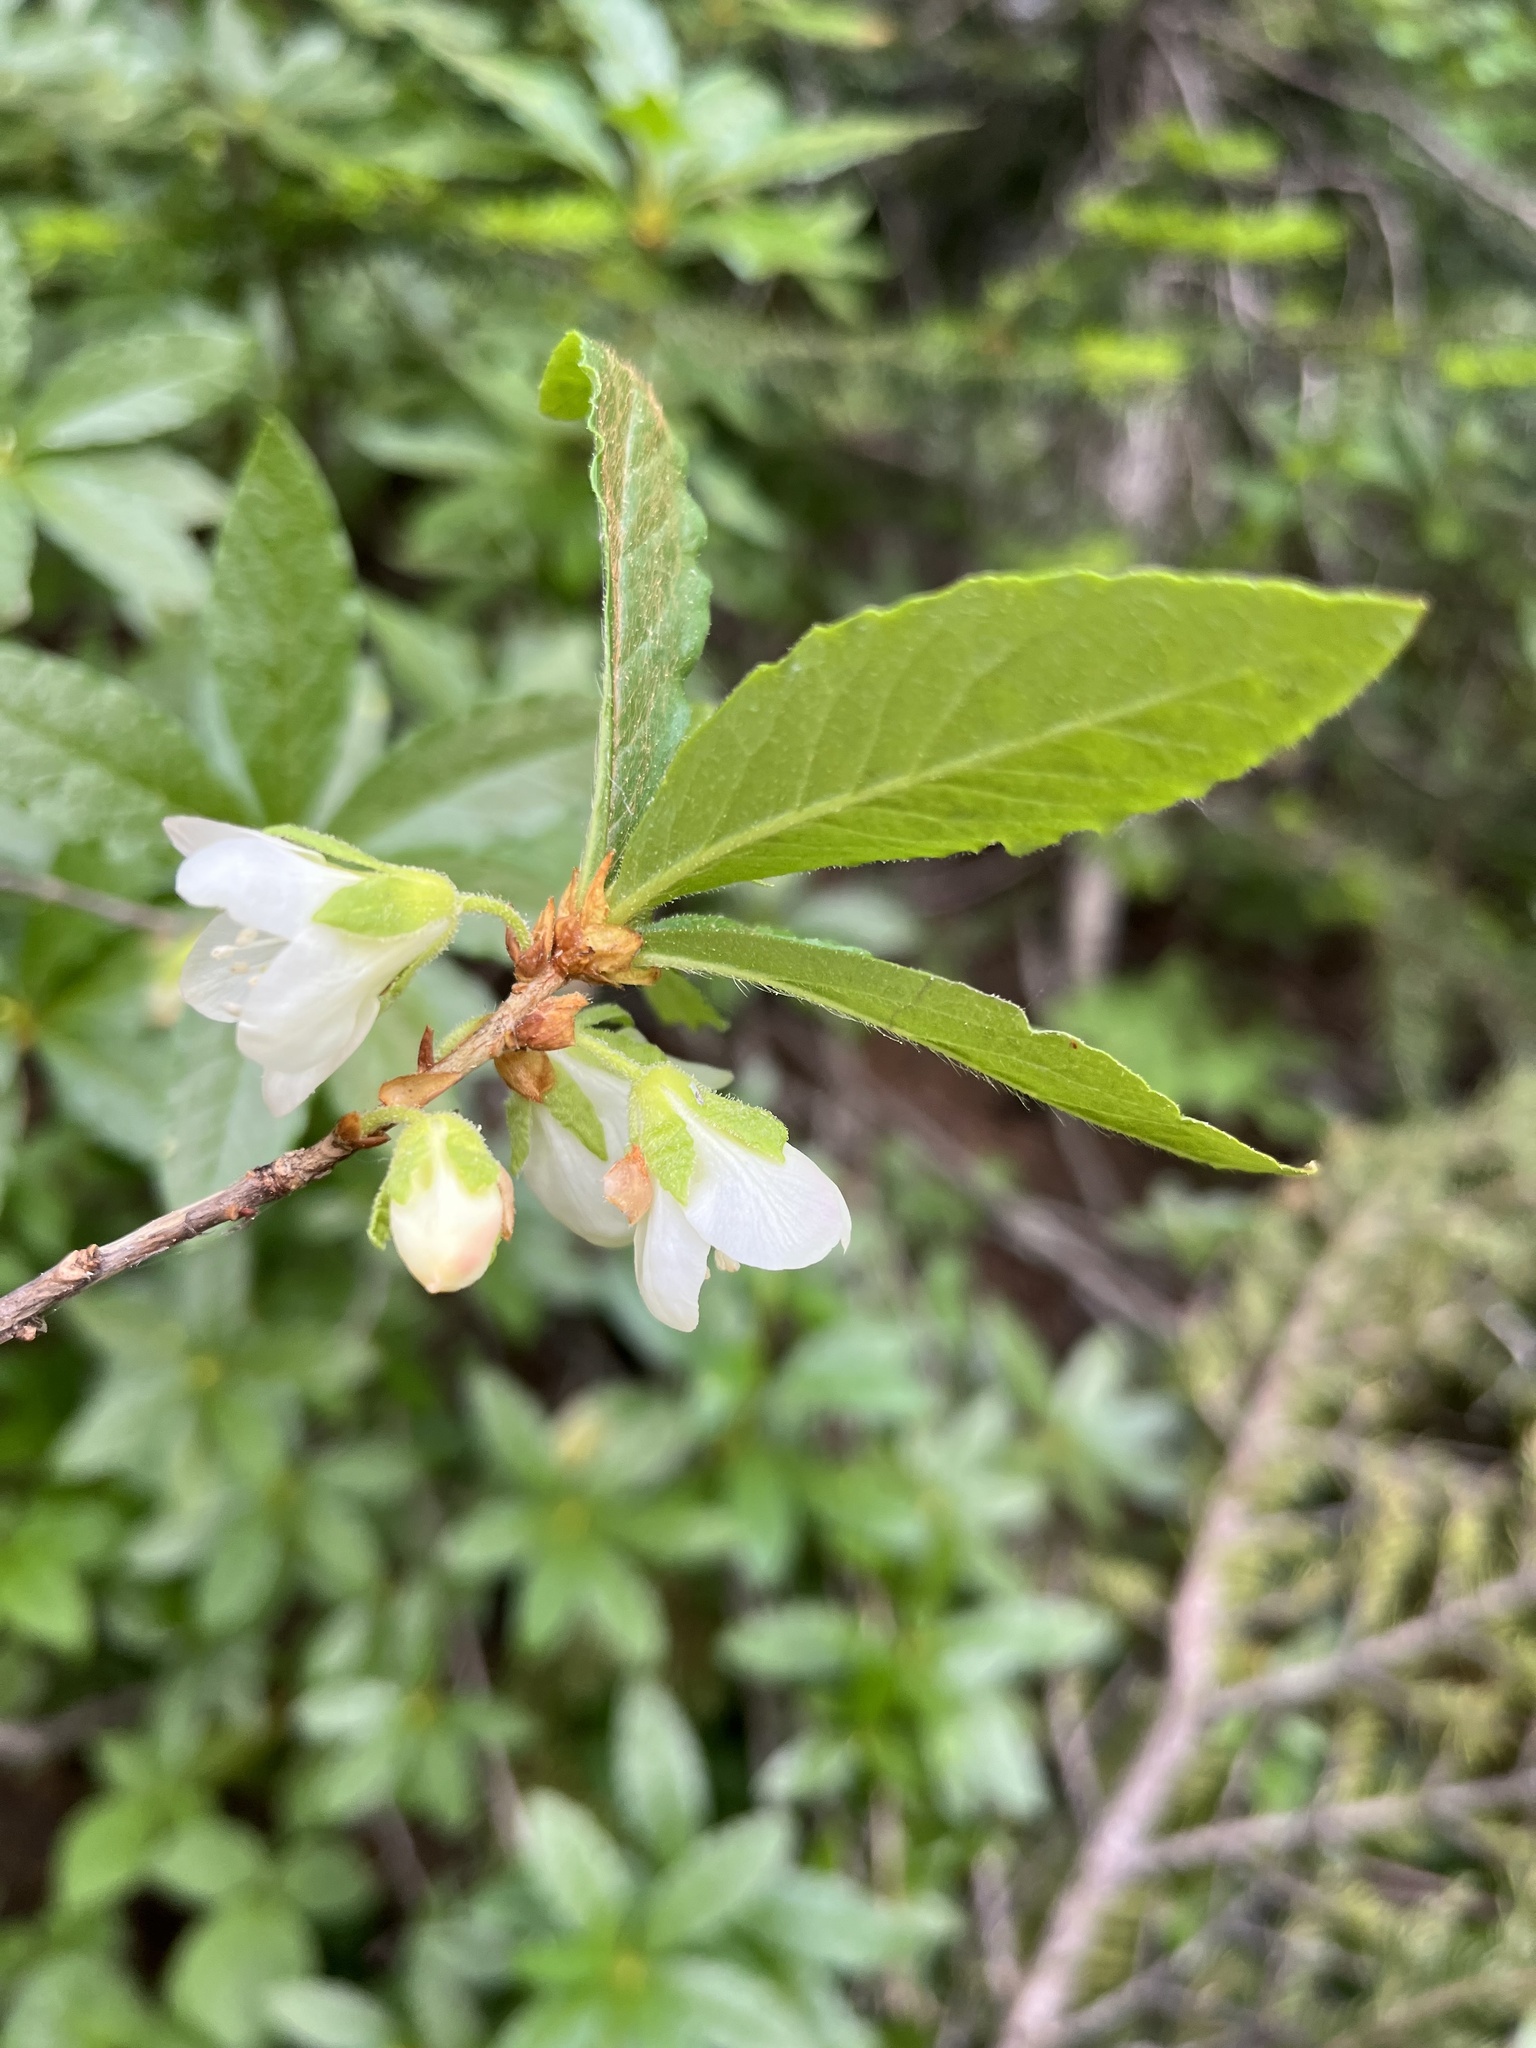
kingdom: Plantae
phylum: Tracheophyta
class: Magnoliopsida
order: Ericales
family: Ericaceae
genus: Rhododendron
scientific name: Rhododendron albiflorum
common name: White rhododendron
